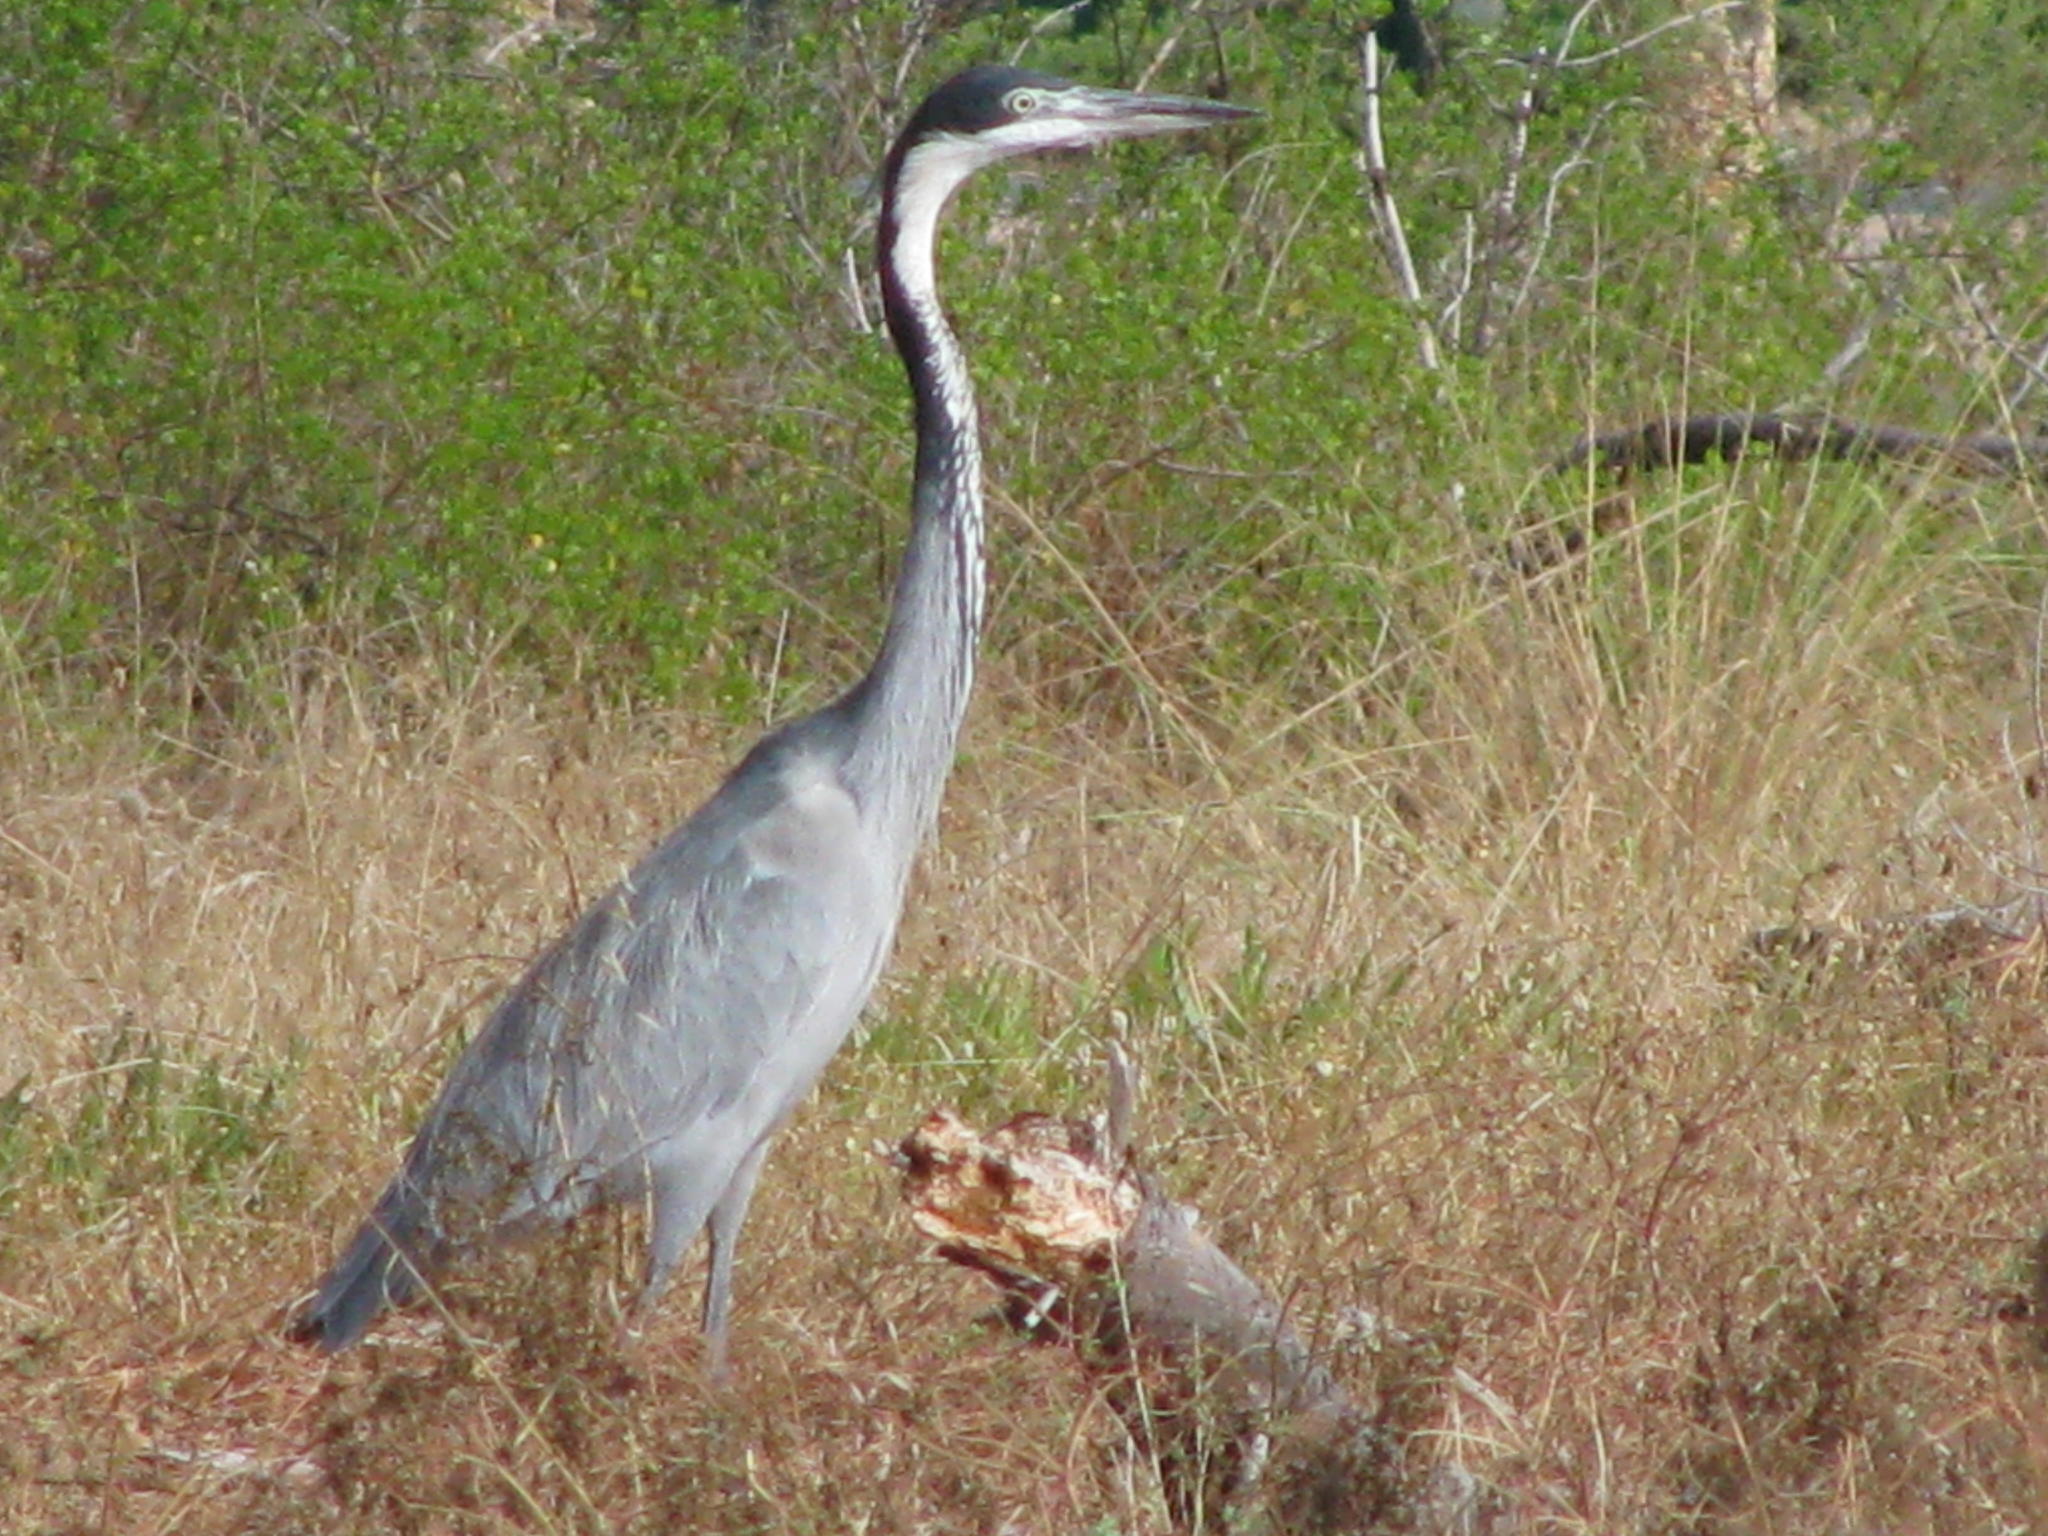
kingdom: Animalia
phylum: Chordata
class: Aves
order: Pelecaniformes
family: Ardeidae
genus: Ardea
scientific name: Ardea melanocephala
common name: Black-headed heron
